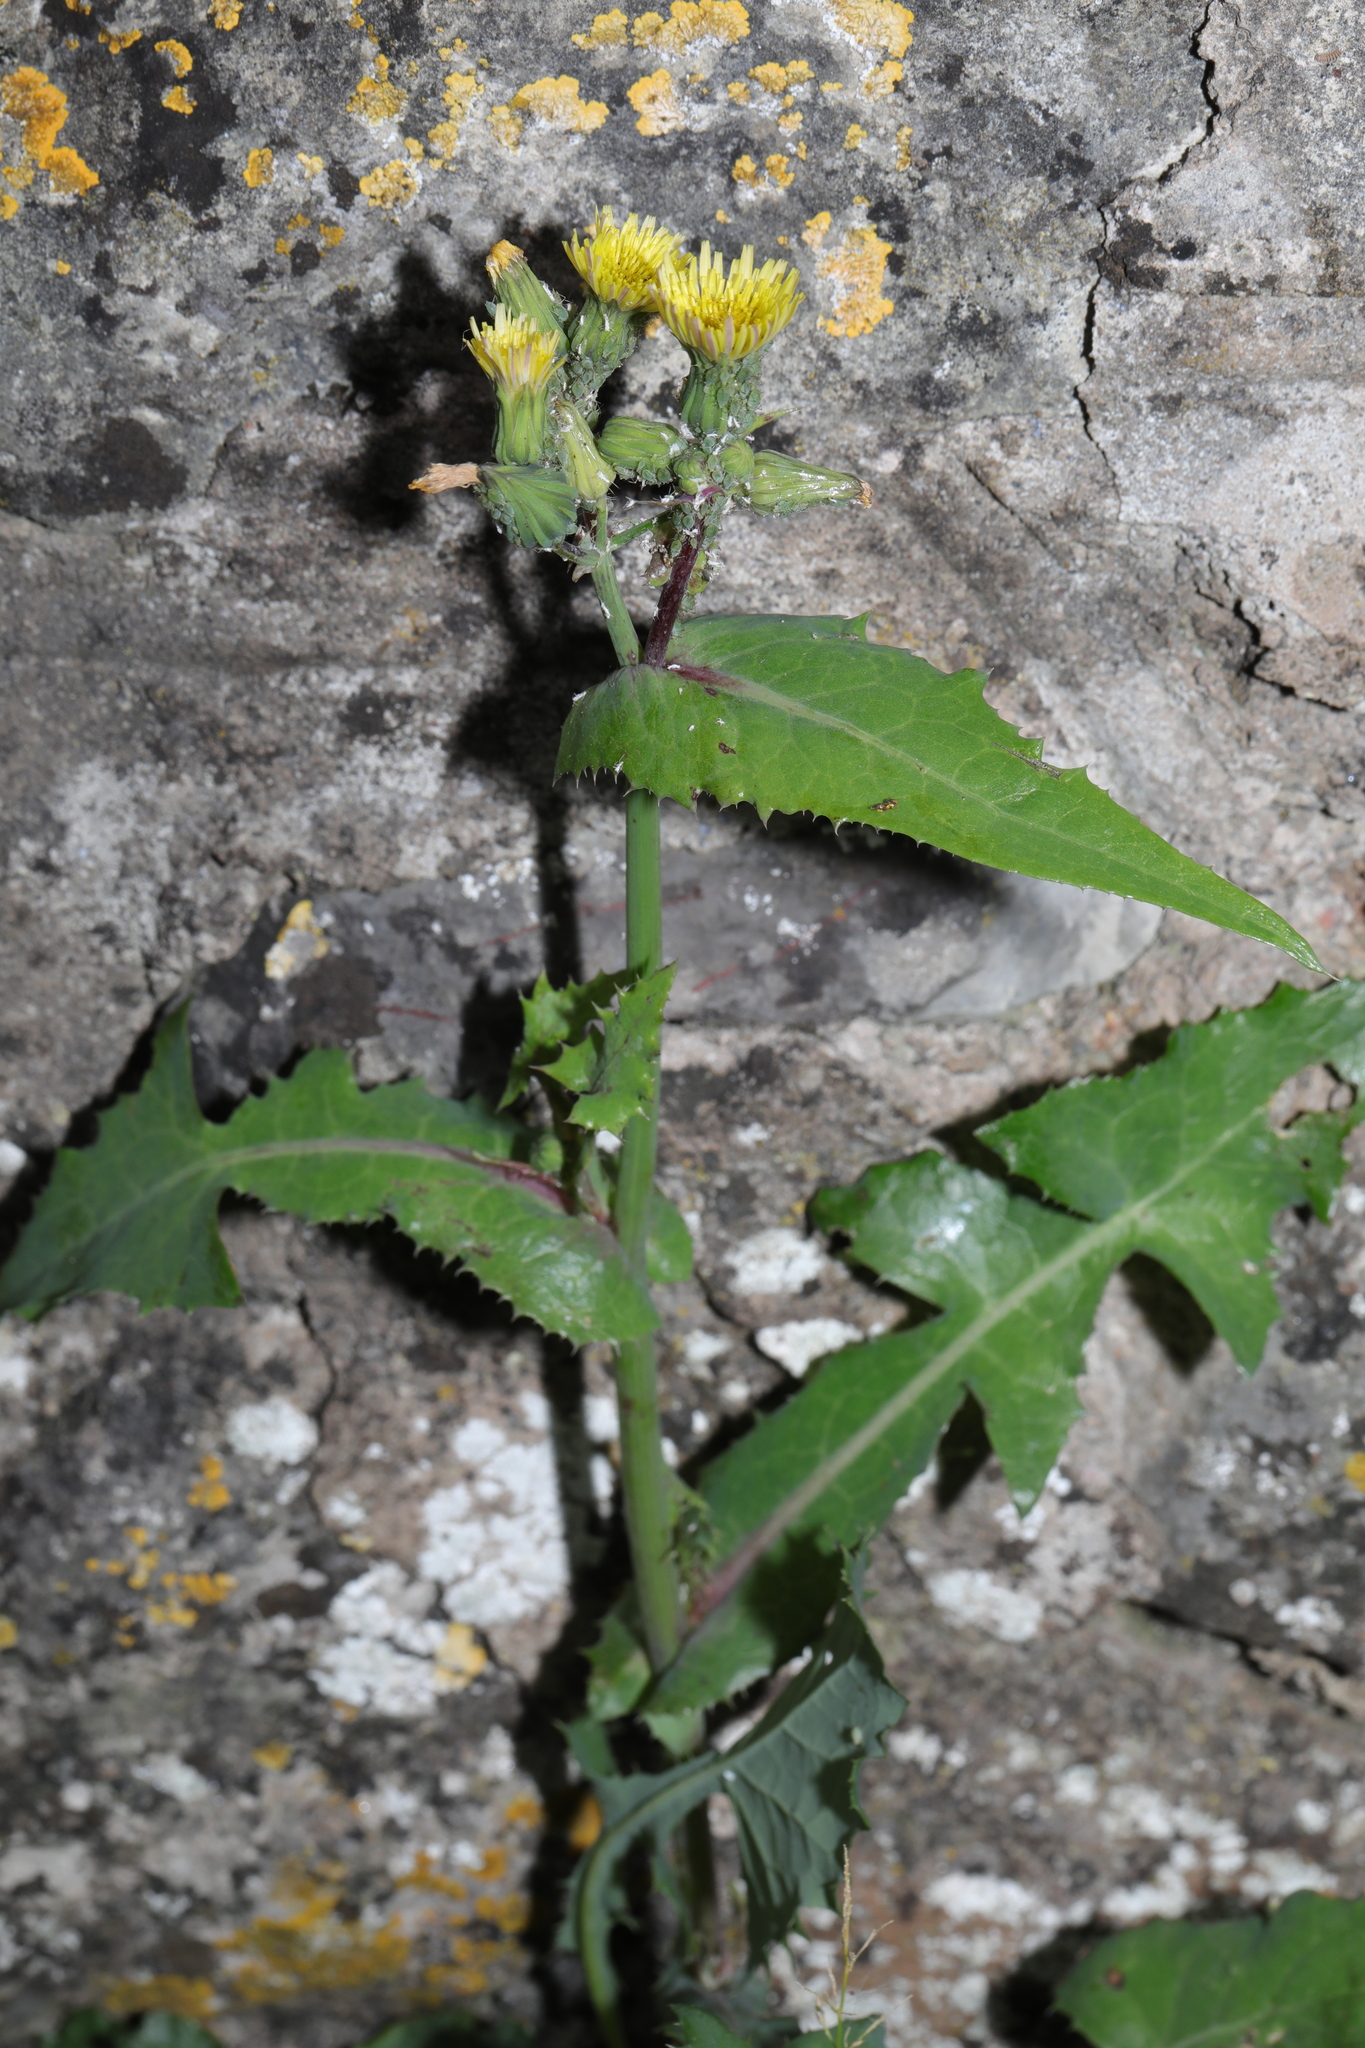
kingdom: Plantae
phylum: Tracheophyta
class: Magnoliopsida
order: Asterales
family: Asteraceae
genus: Sonchus
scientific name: Sonchus oleraceus
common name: Common sowthistle
